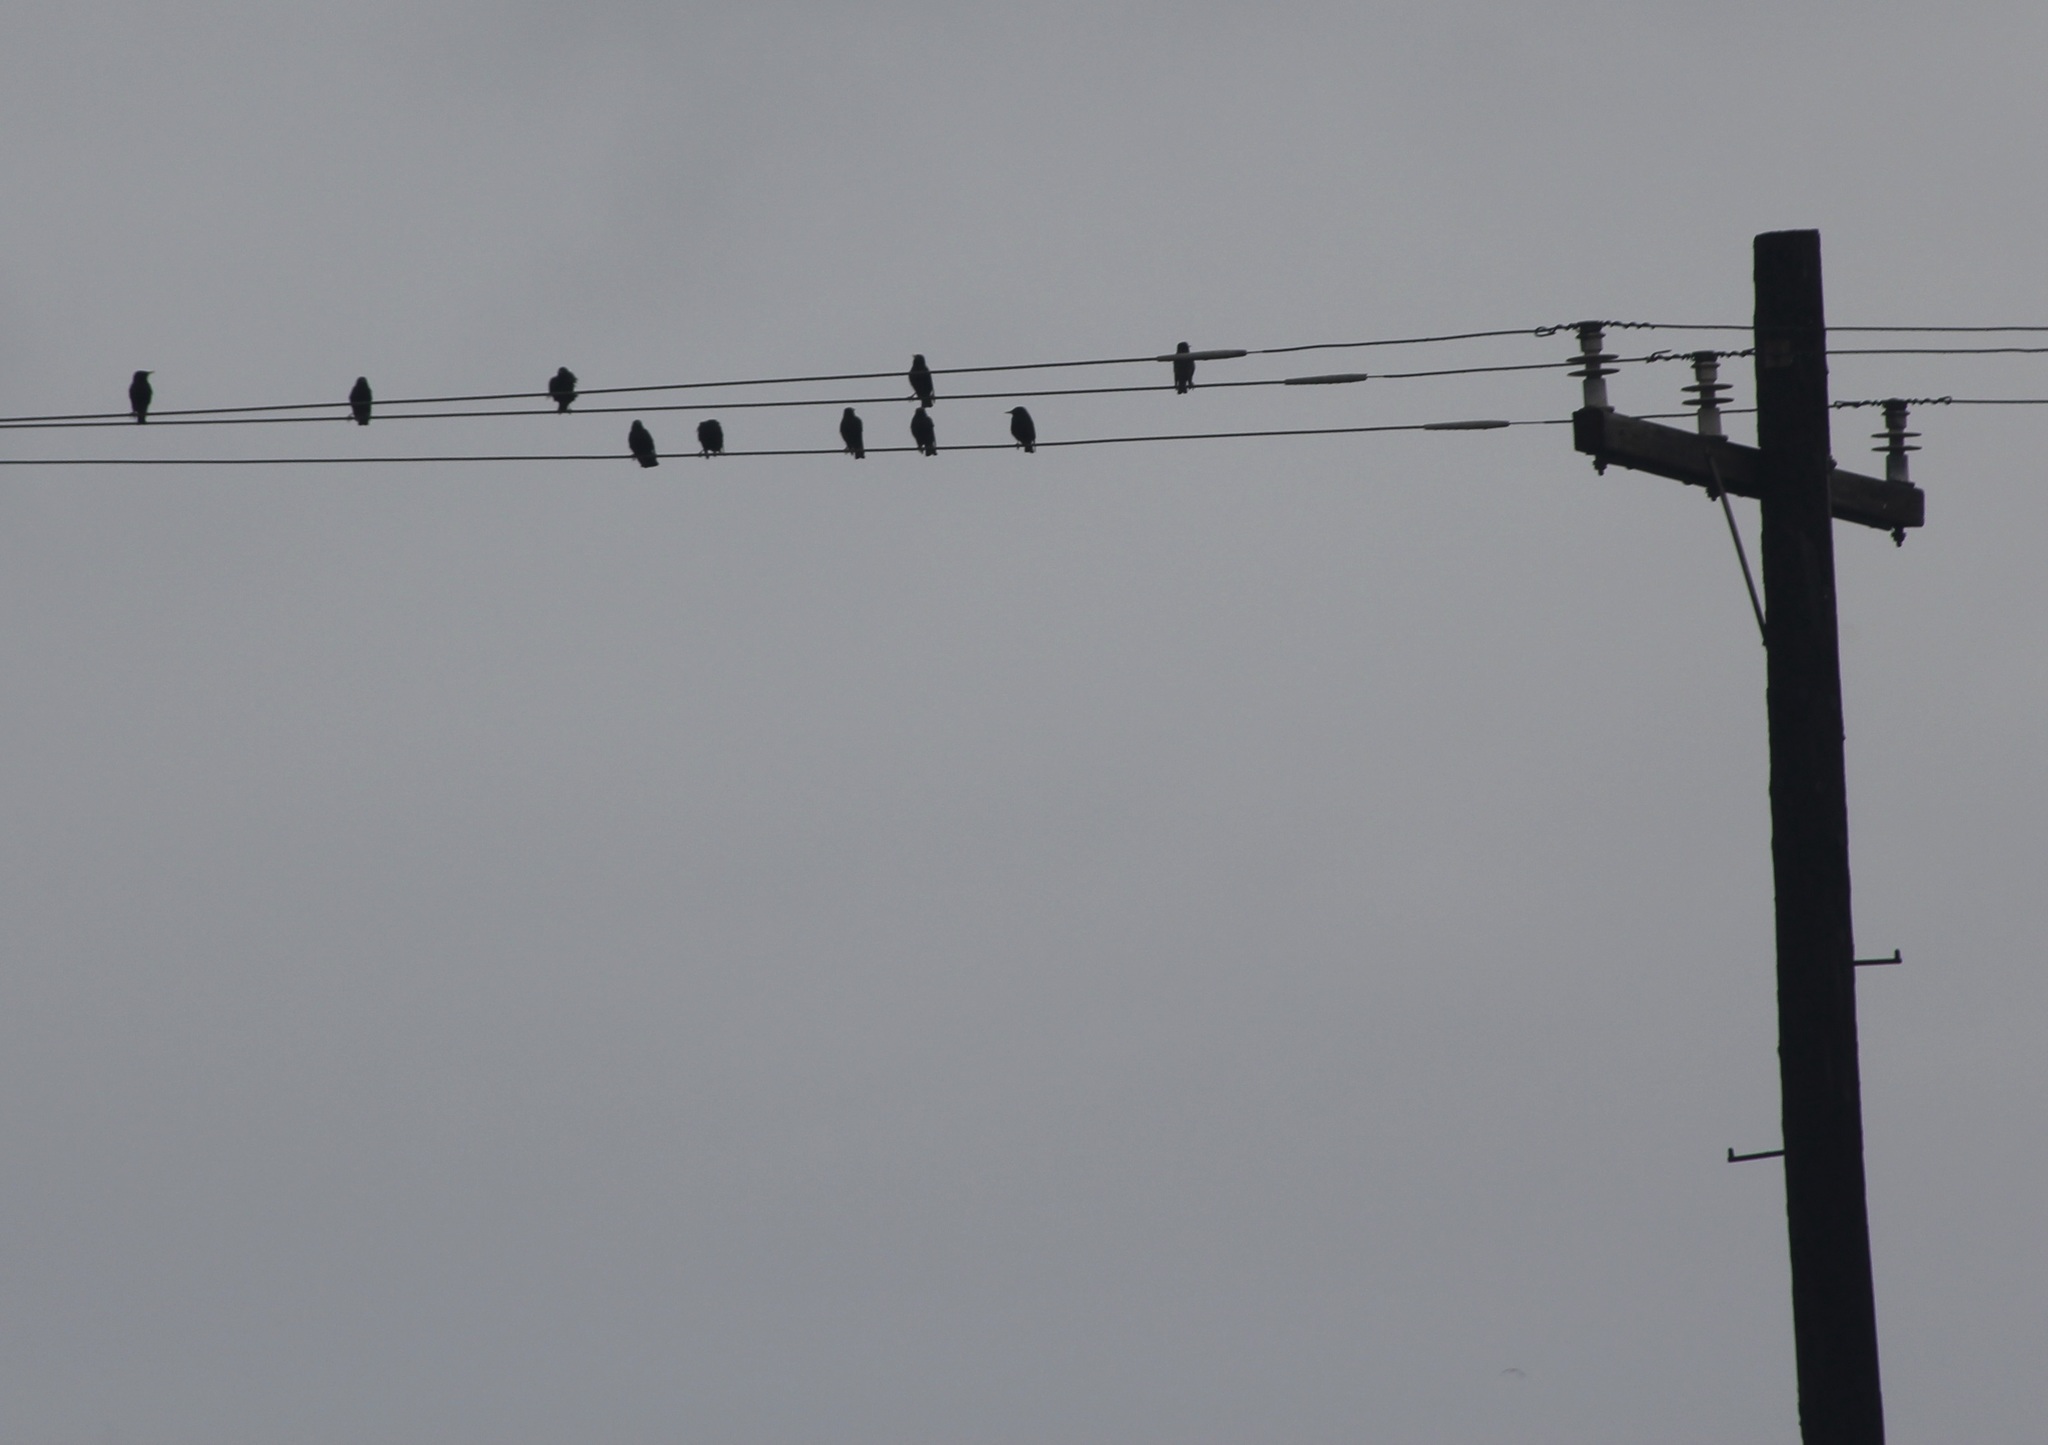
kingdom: Animalia
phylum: Chordata
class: Aves
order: Passeriformes
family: Sturnidae
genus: Sturnus
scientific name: Sturnus vulgaris
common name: Common starling
